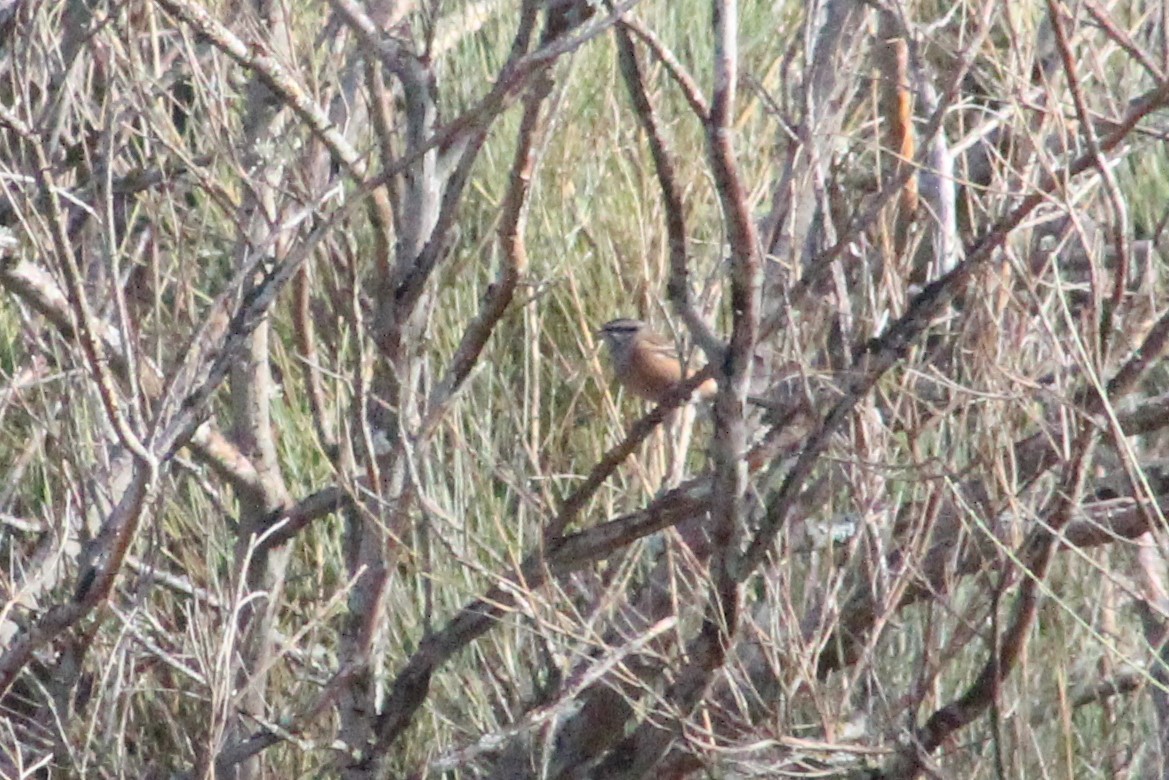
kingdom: Animalia
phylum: Chordata
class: Aves
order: Passeriformes
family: Emberizidae
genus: Emberiza
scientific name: Emberiza cia
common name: Rock bunting
